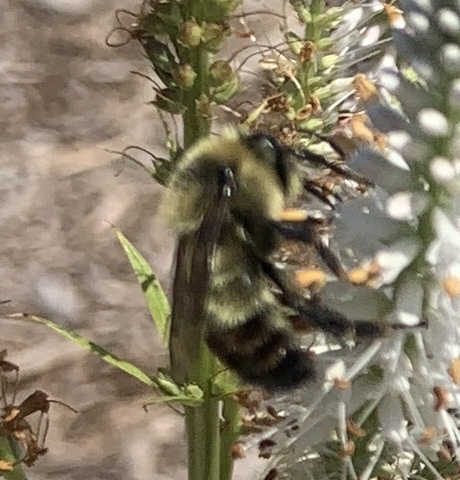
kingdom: Animalia
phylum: Arthropoda
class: Insecta
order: Hymenoptera
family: Apidae
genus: Bombus
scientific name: Bombus rufocinctus
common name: Red-belted bumble bee
